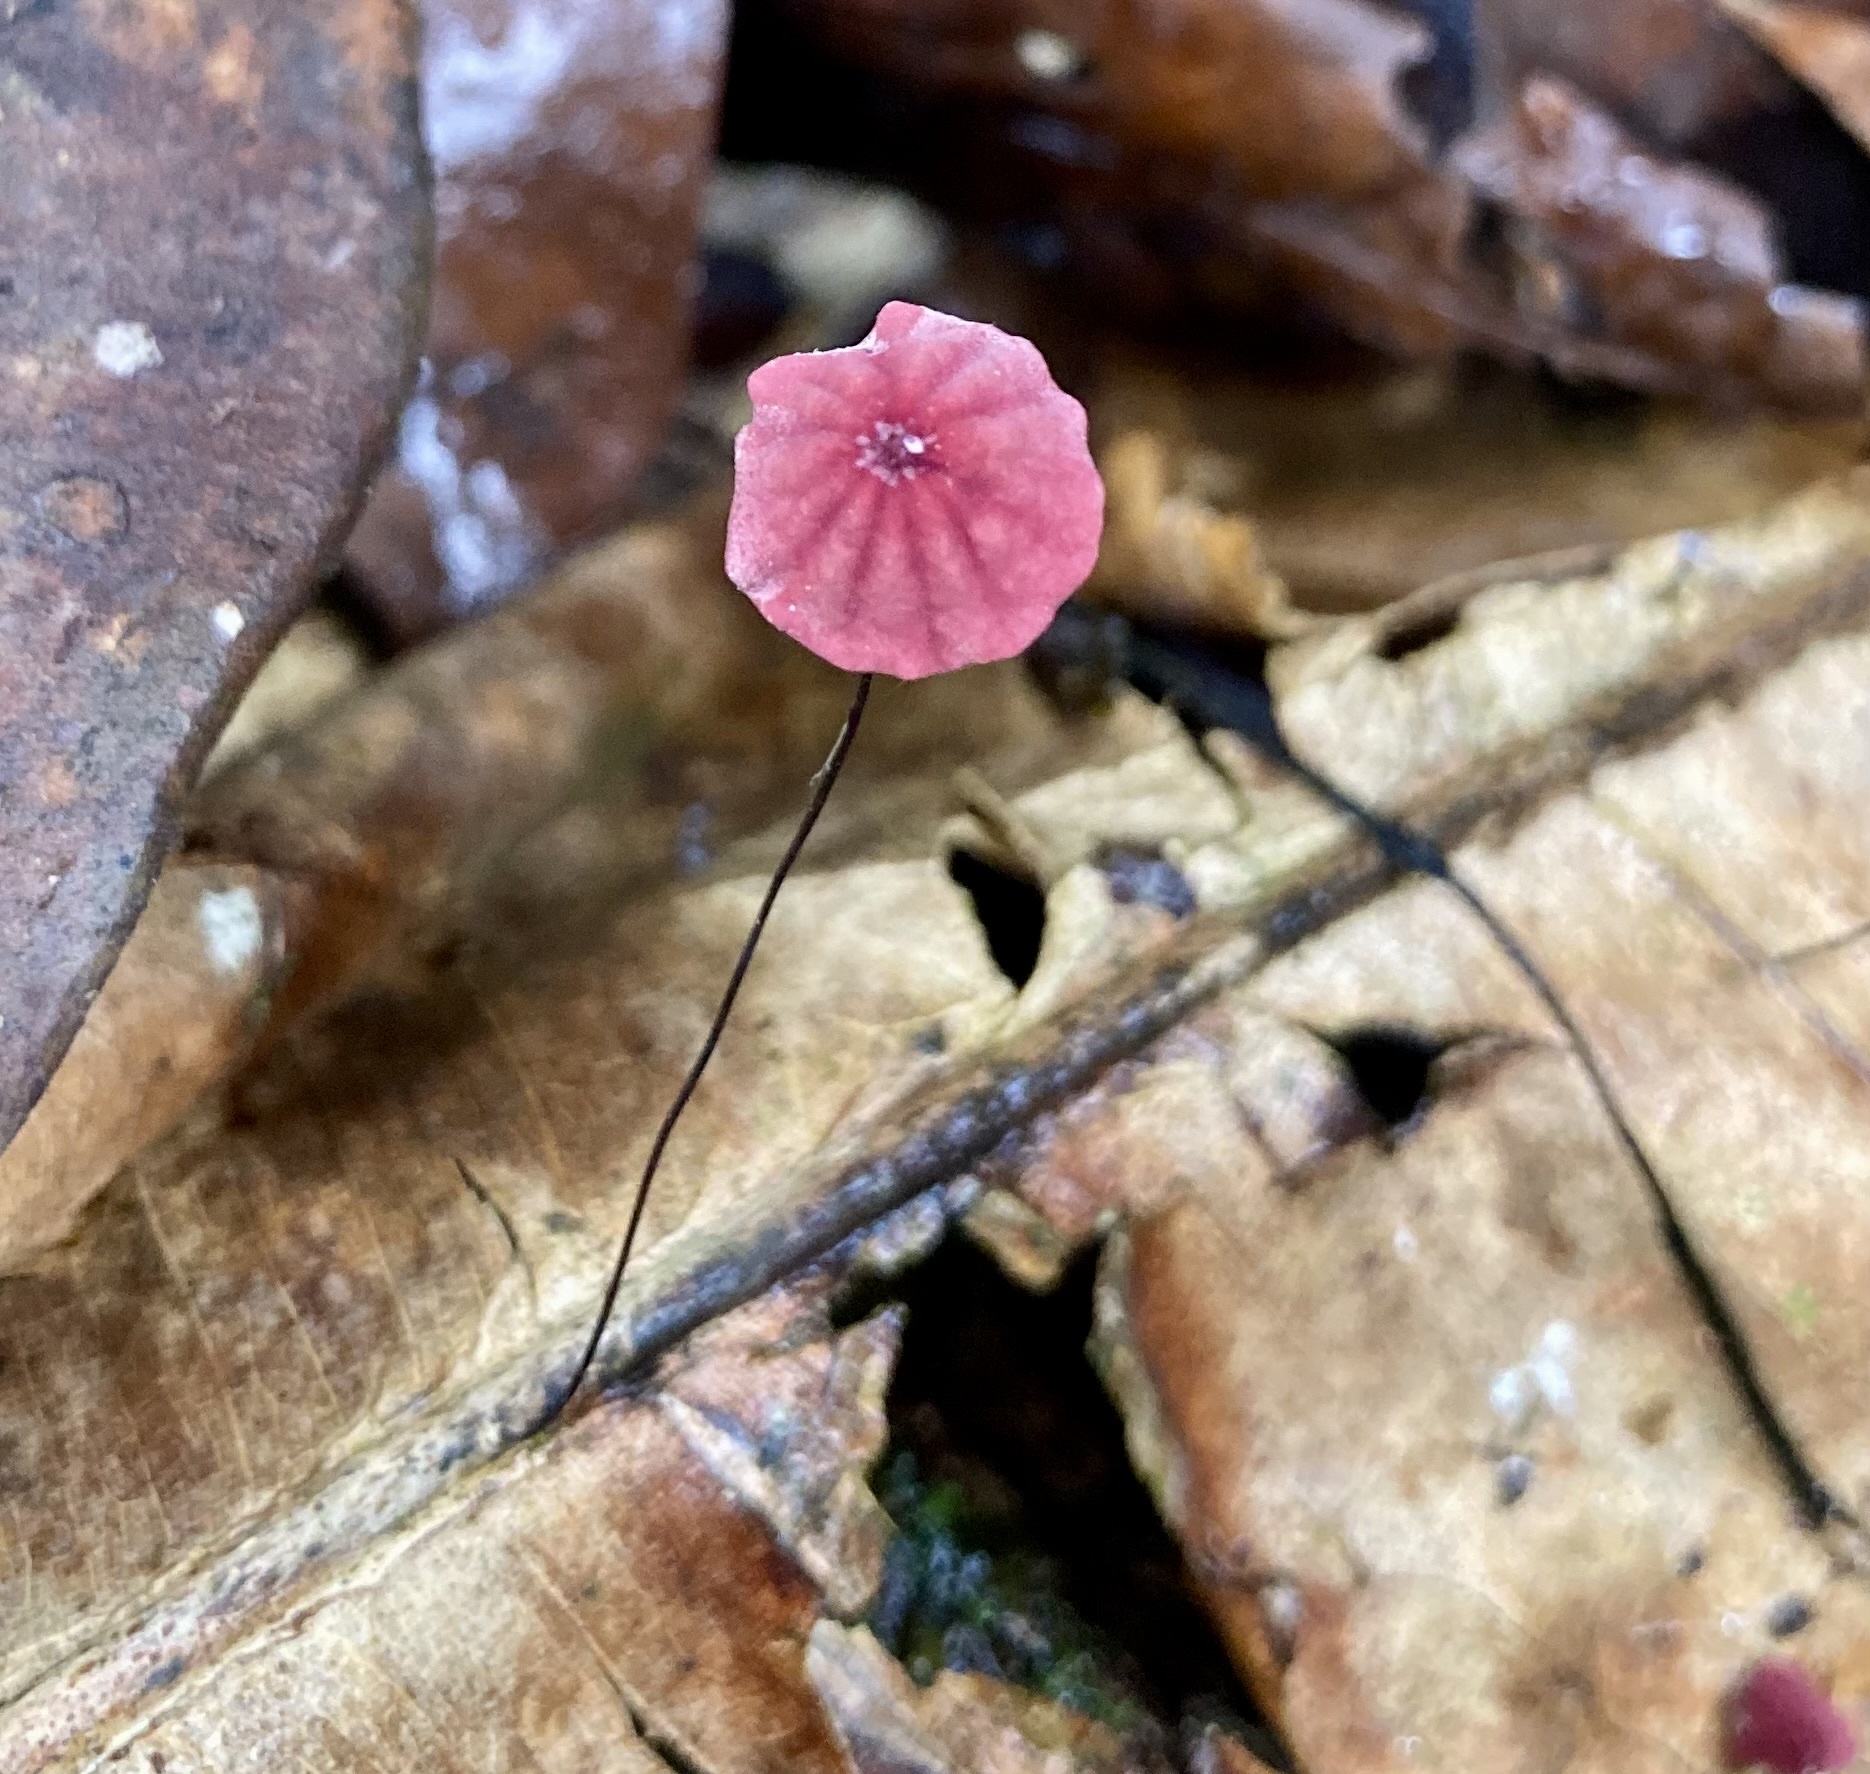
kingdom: Fungi
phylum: Basidiomycota
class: Agaricomycetes
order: Agaricales
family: Marasmiaceae
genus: Marasmius
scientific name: Marasmius haematocephalus
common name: Purple pinwheel
